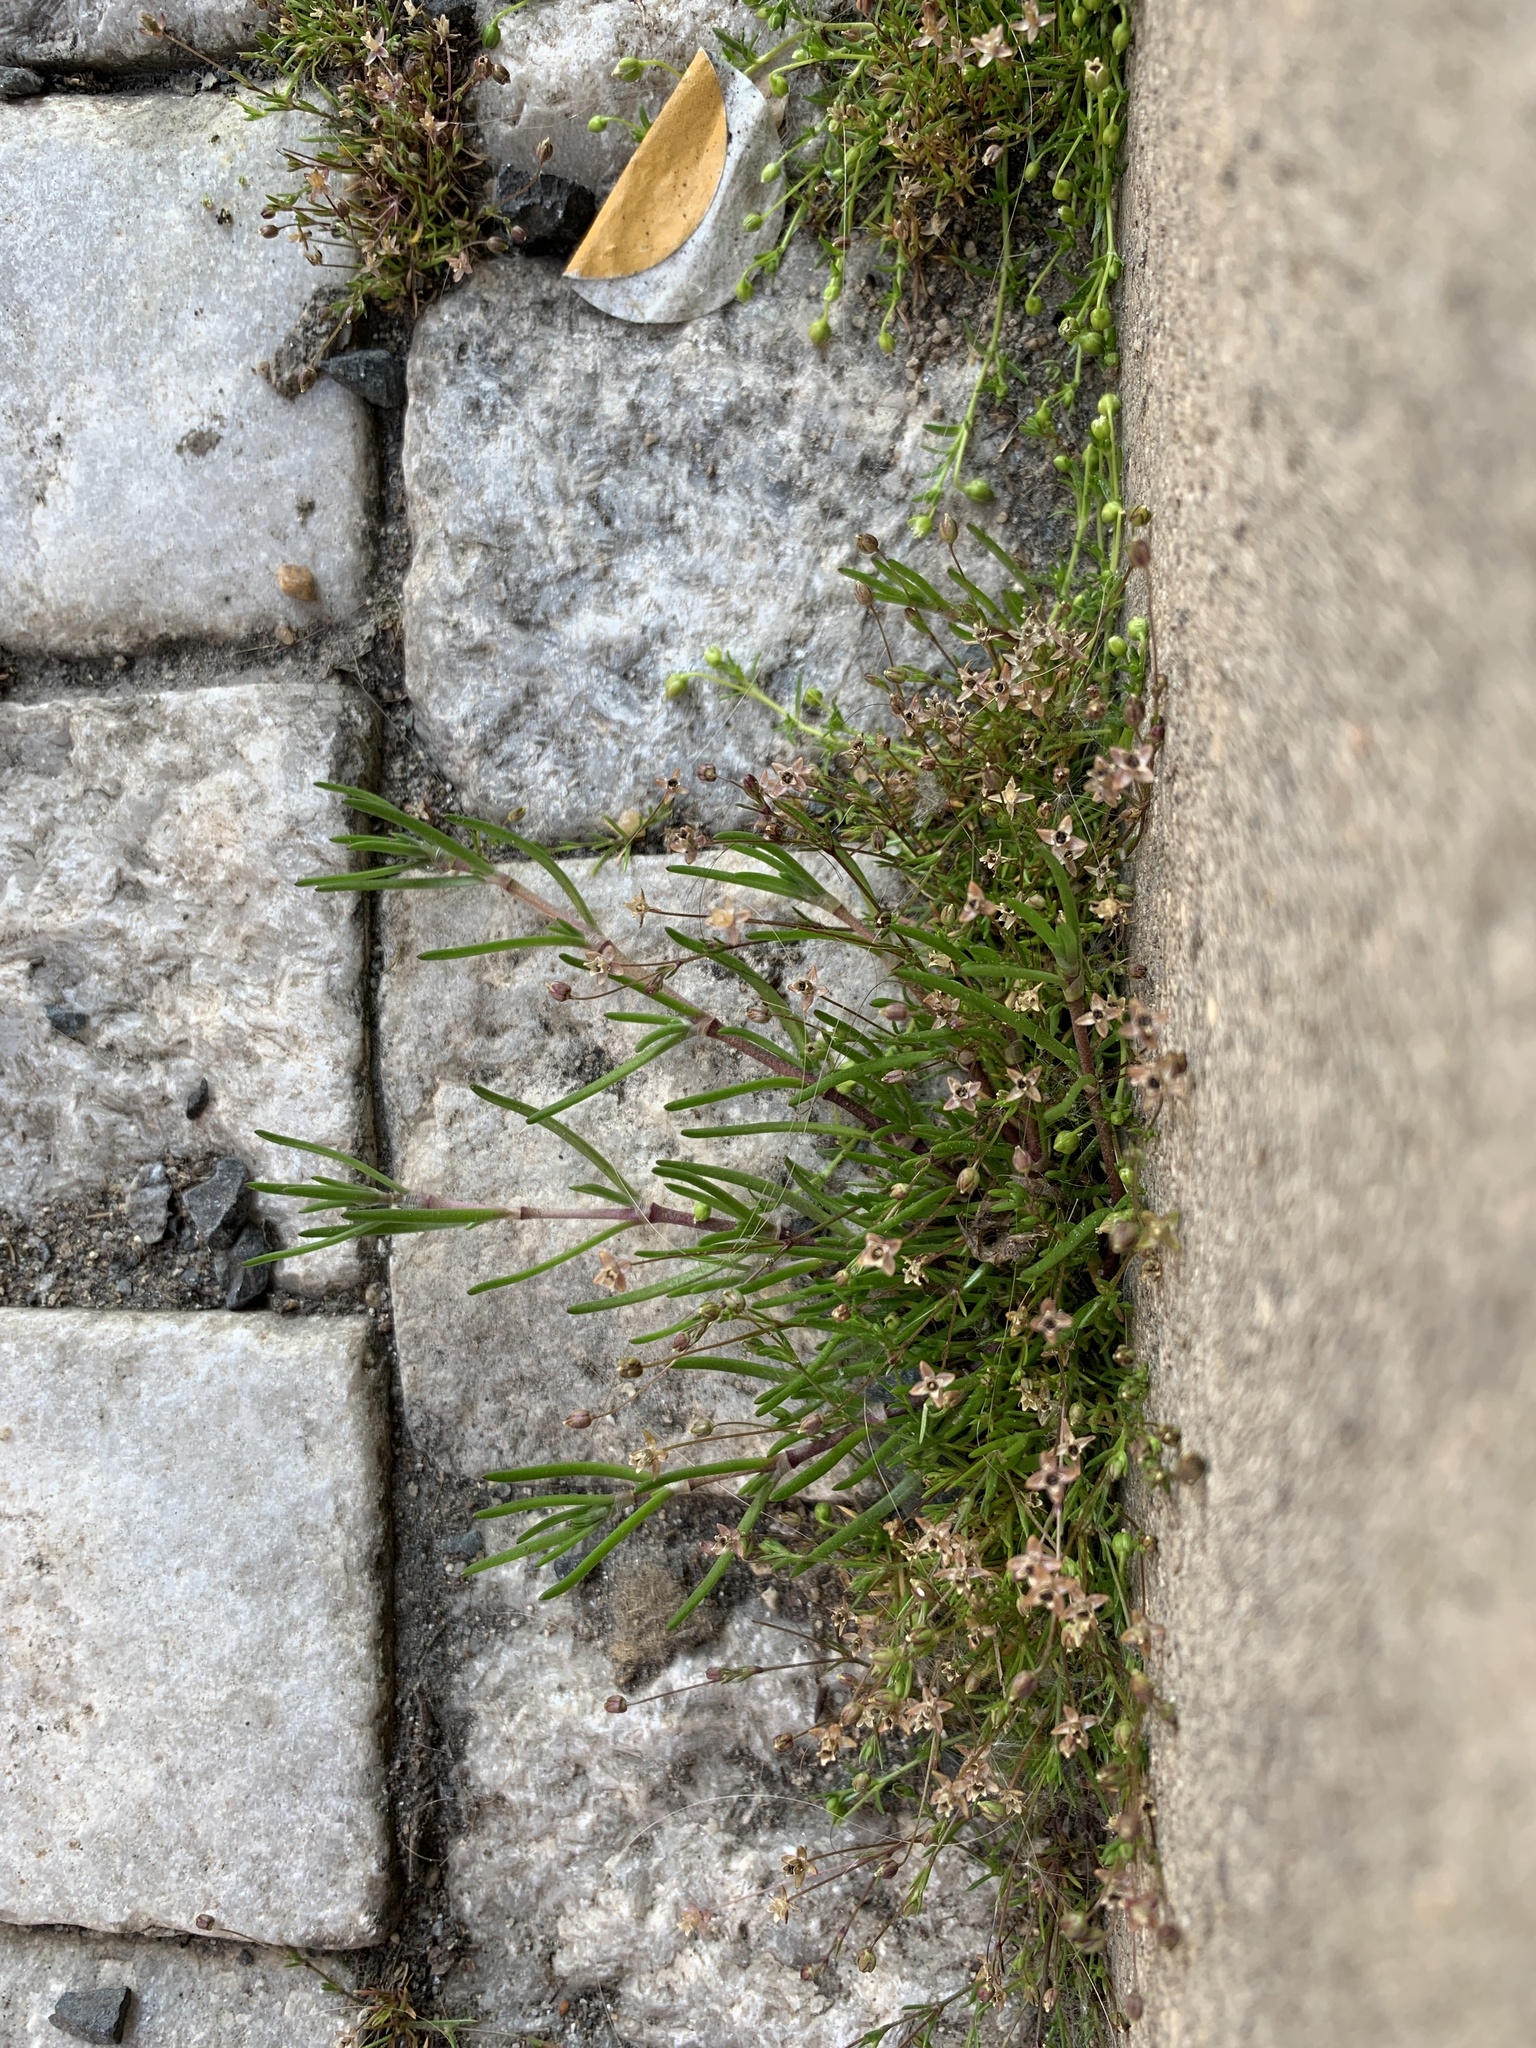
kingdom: Plantae
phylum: Tracheophyta
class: Magnoliopsida
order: Caryophyllales
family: Caryophyllaceae
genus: Sagina
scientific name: Sagina procumbens
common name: Procumbent pearlwort
